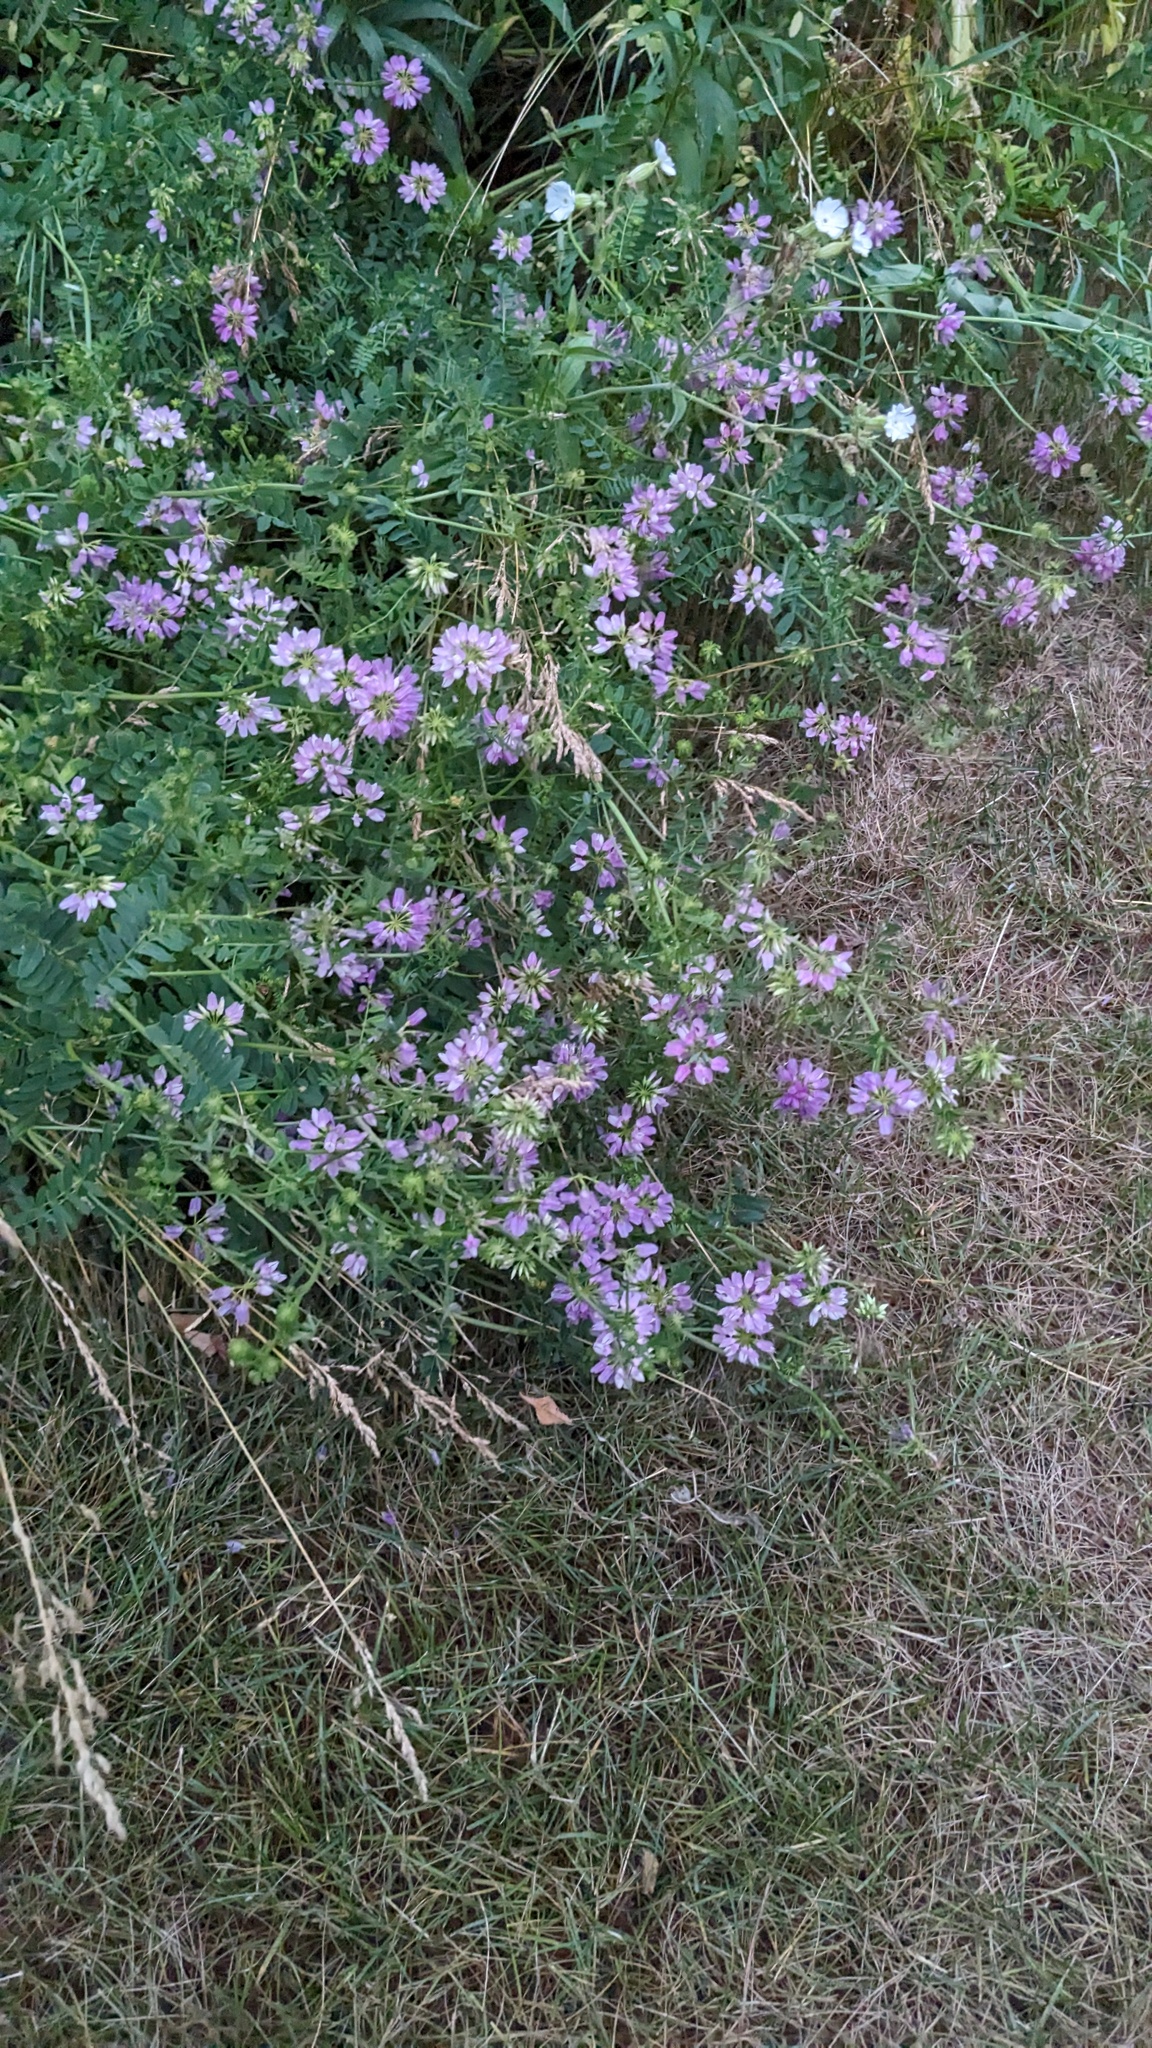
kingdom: Plantae
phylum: Tracheophyta
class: Magnoliopsida
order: Fabales
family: Fabaceae
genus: Coronilla
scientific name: Coronilla varia
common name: Crownvetch
